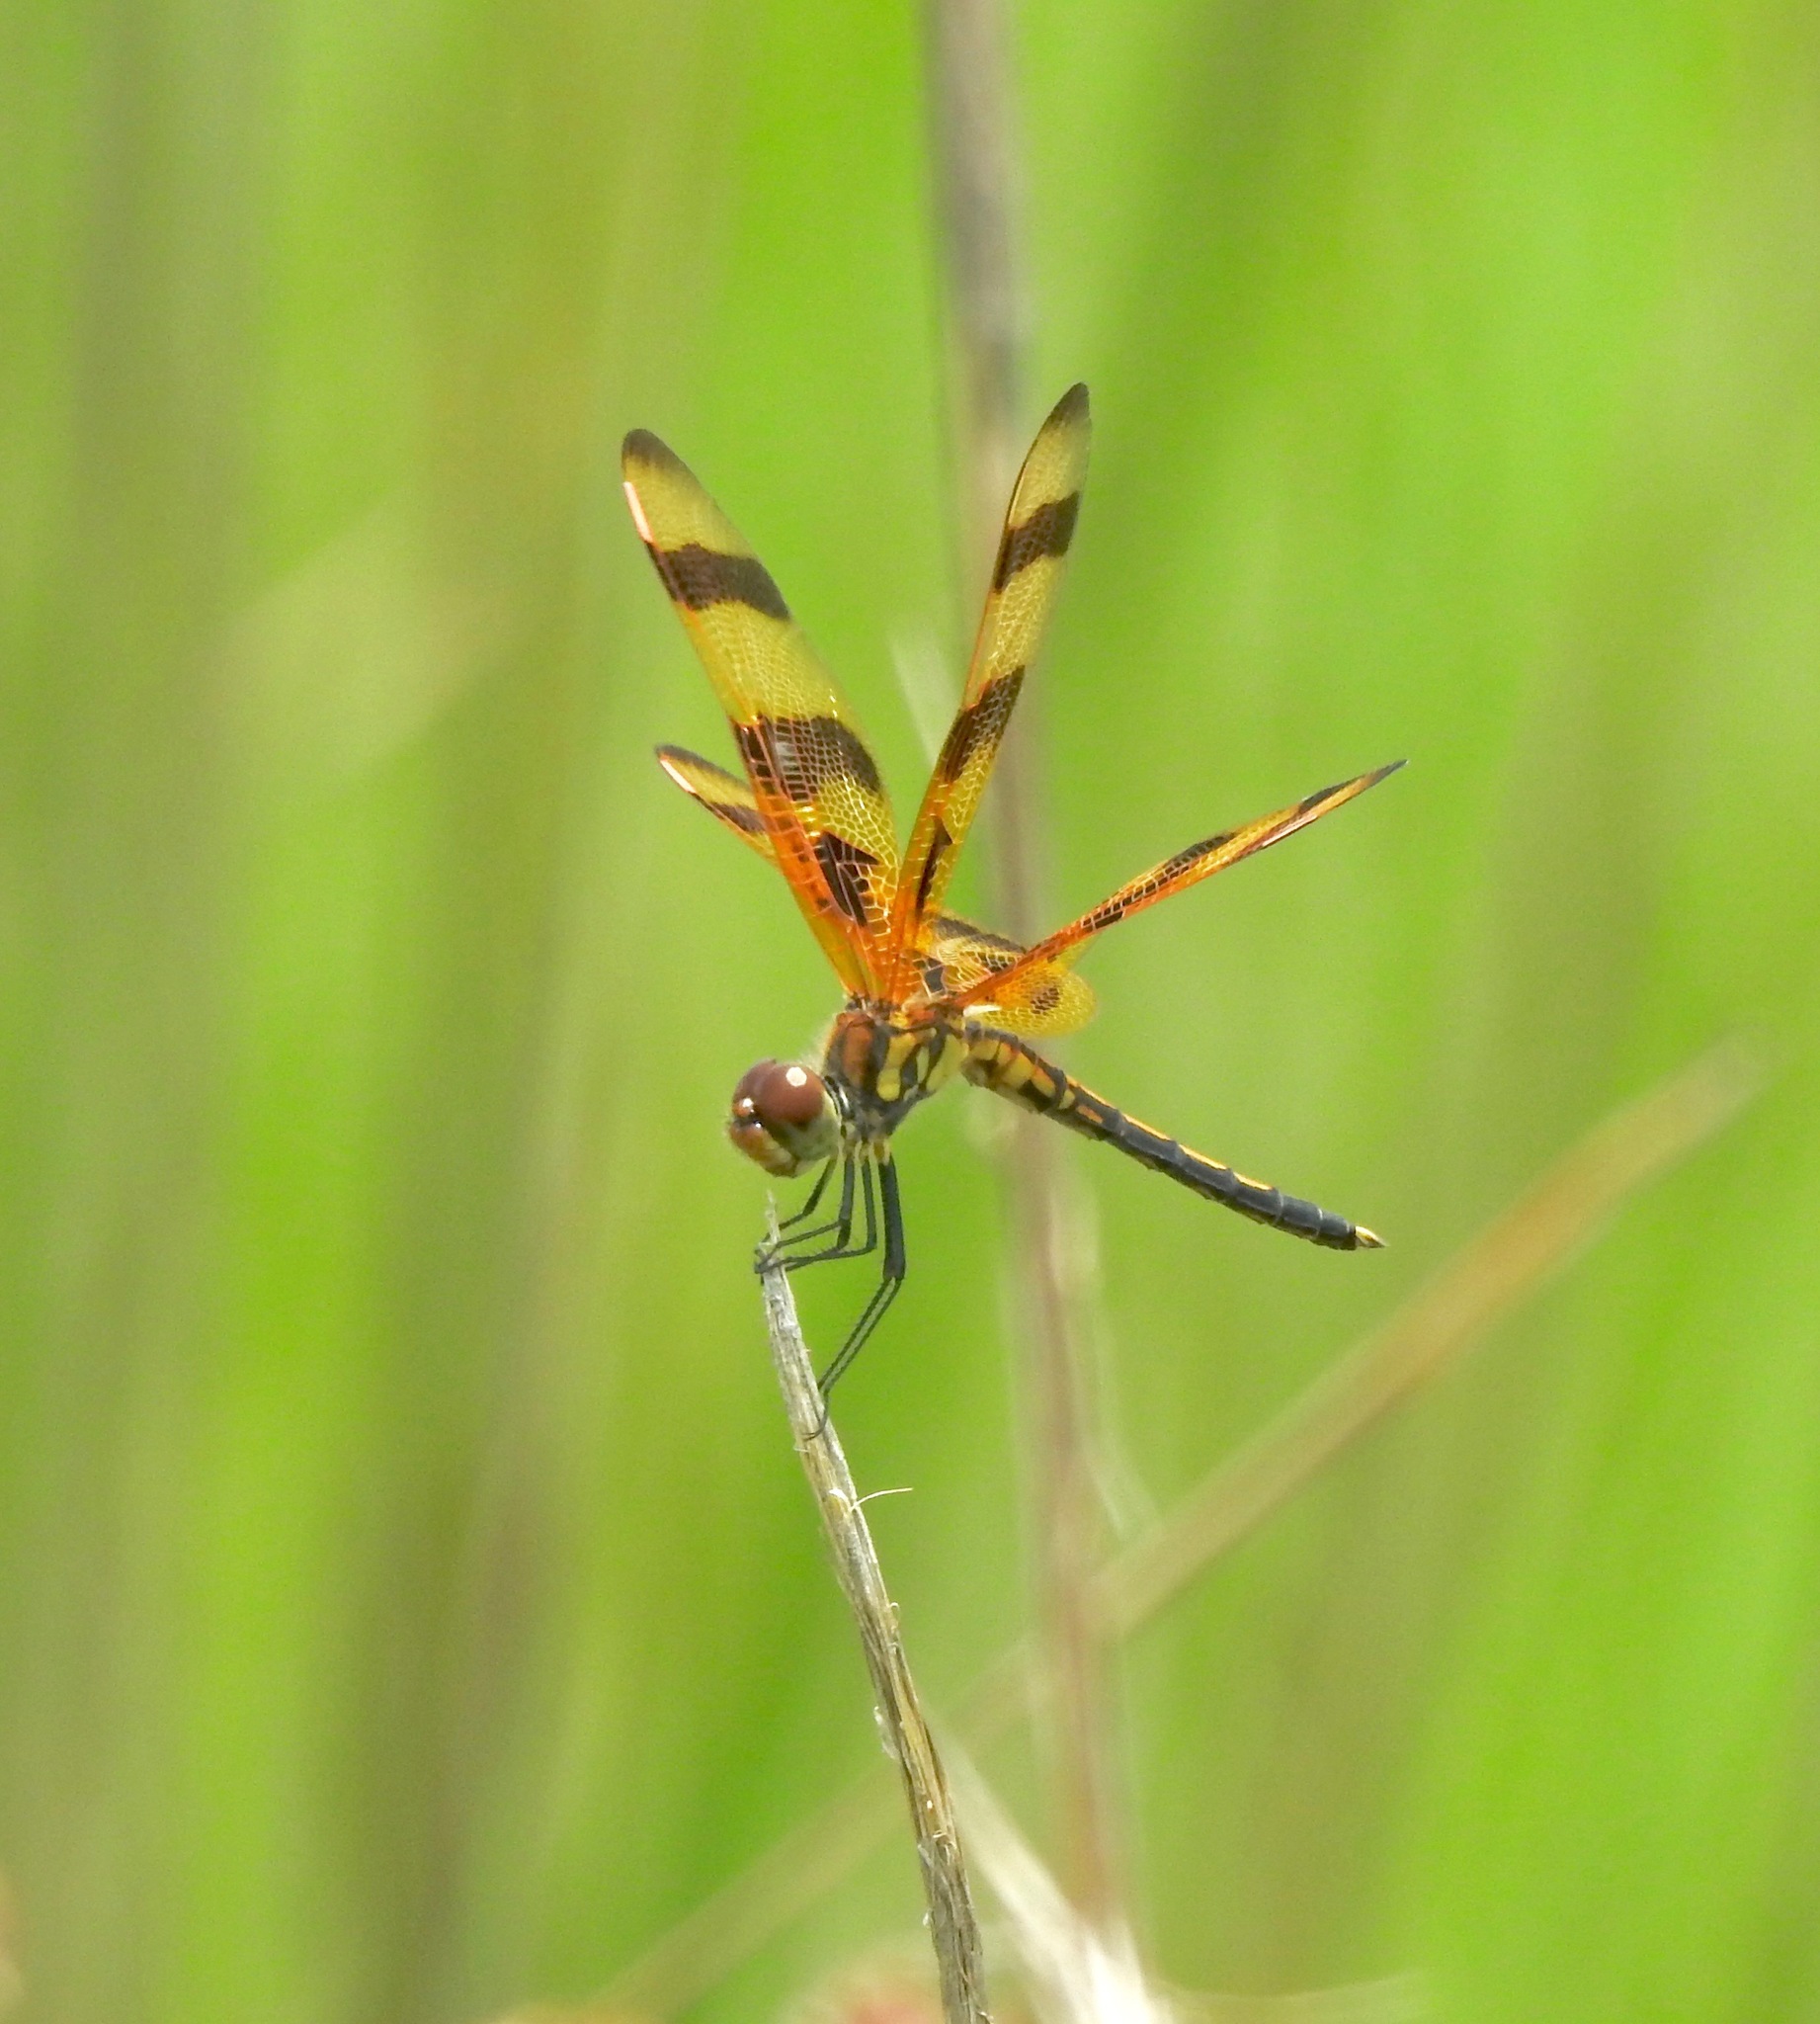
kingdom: Animalia
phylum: Arthropoda
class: Insecta
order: Odonata
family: Libellulidae
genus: Celithemis
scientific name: Celithemis eponina
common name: Halloween pennant
